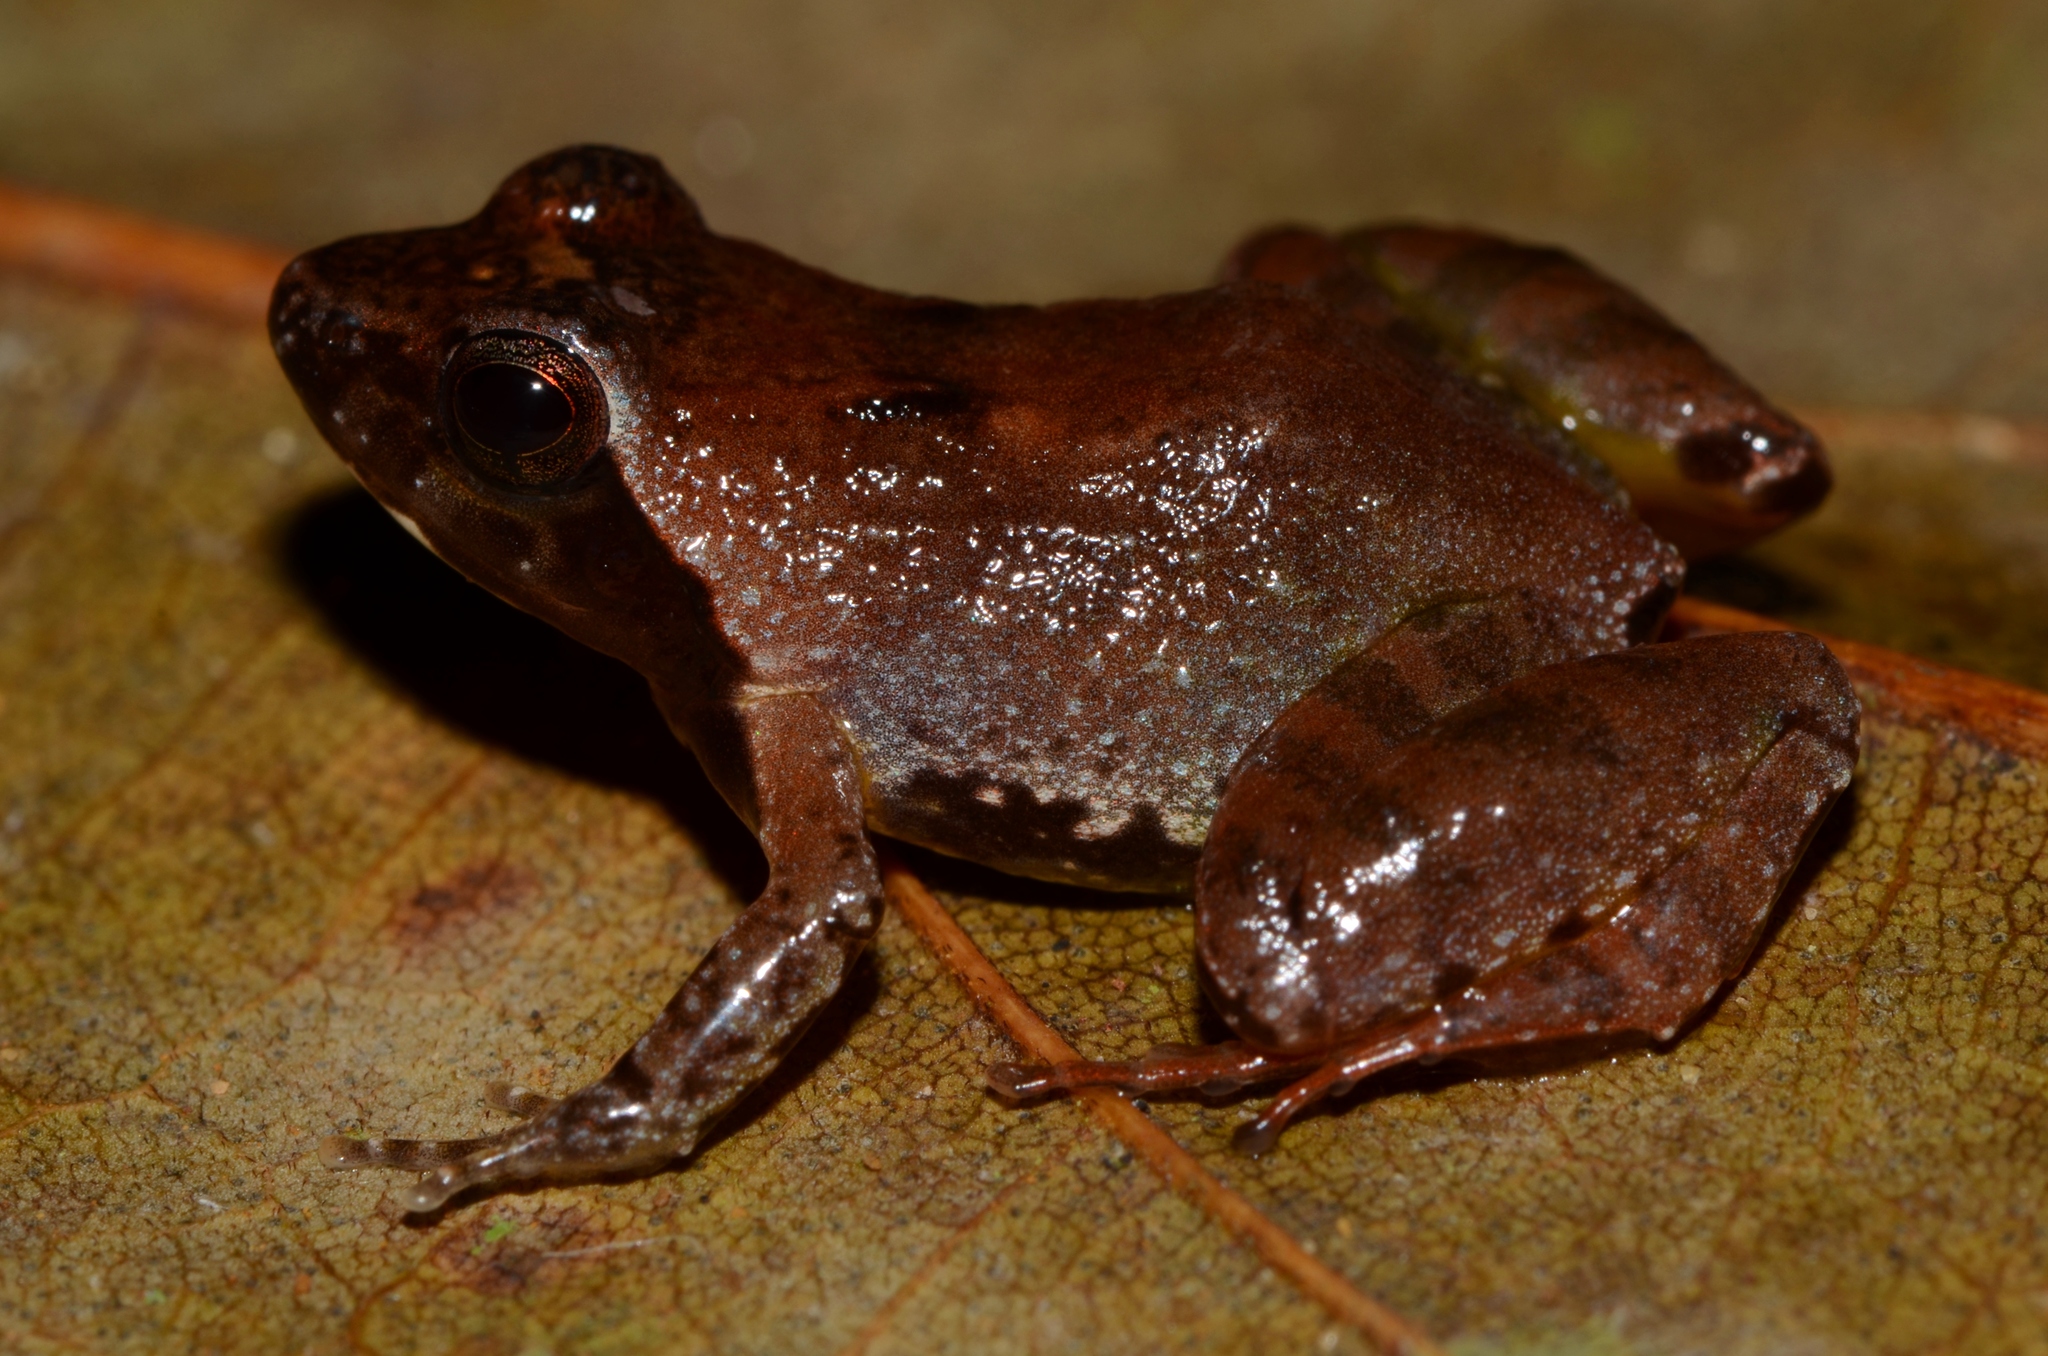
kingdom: Animalia
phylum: Chordata
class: Amphibia
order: Anura
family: Phrynobatrachidae
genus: Phrynobatrachus
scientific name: Phrynobatrachus horsti
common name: Horst's puddle frog
